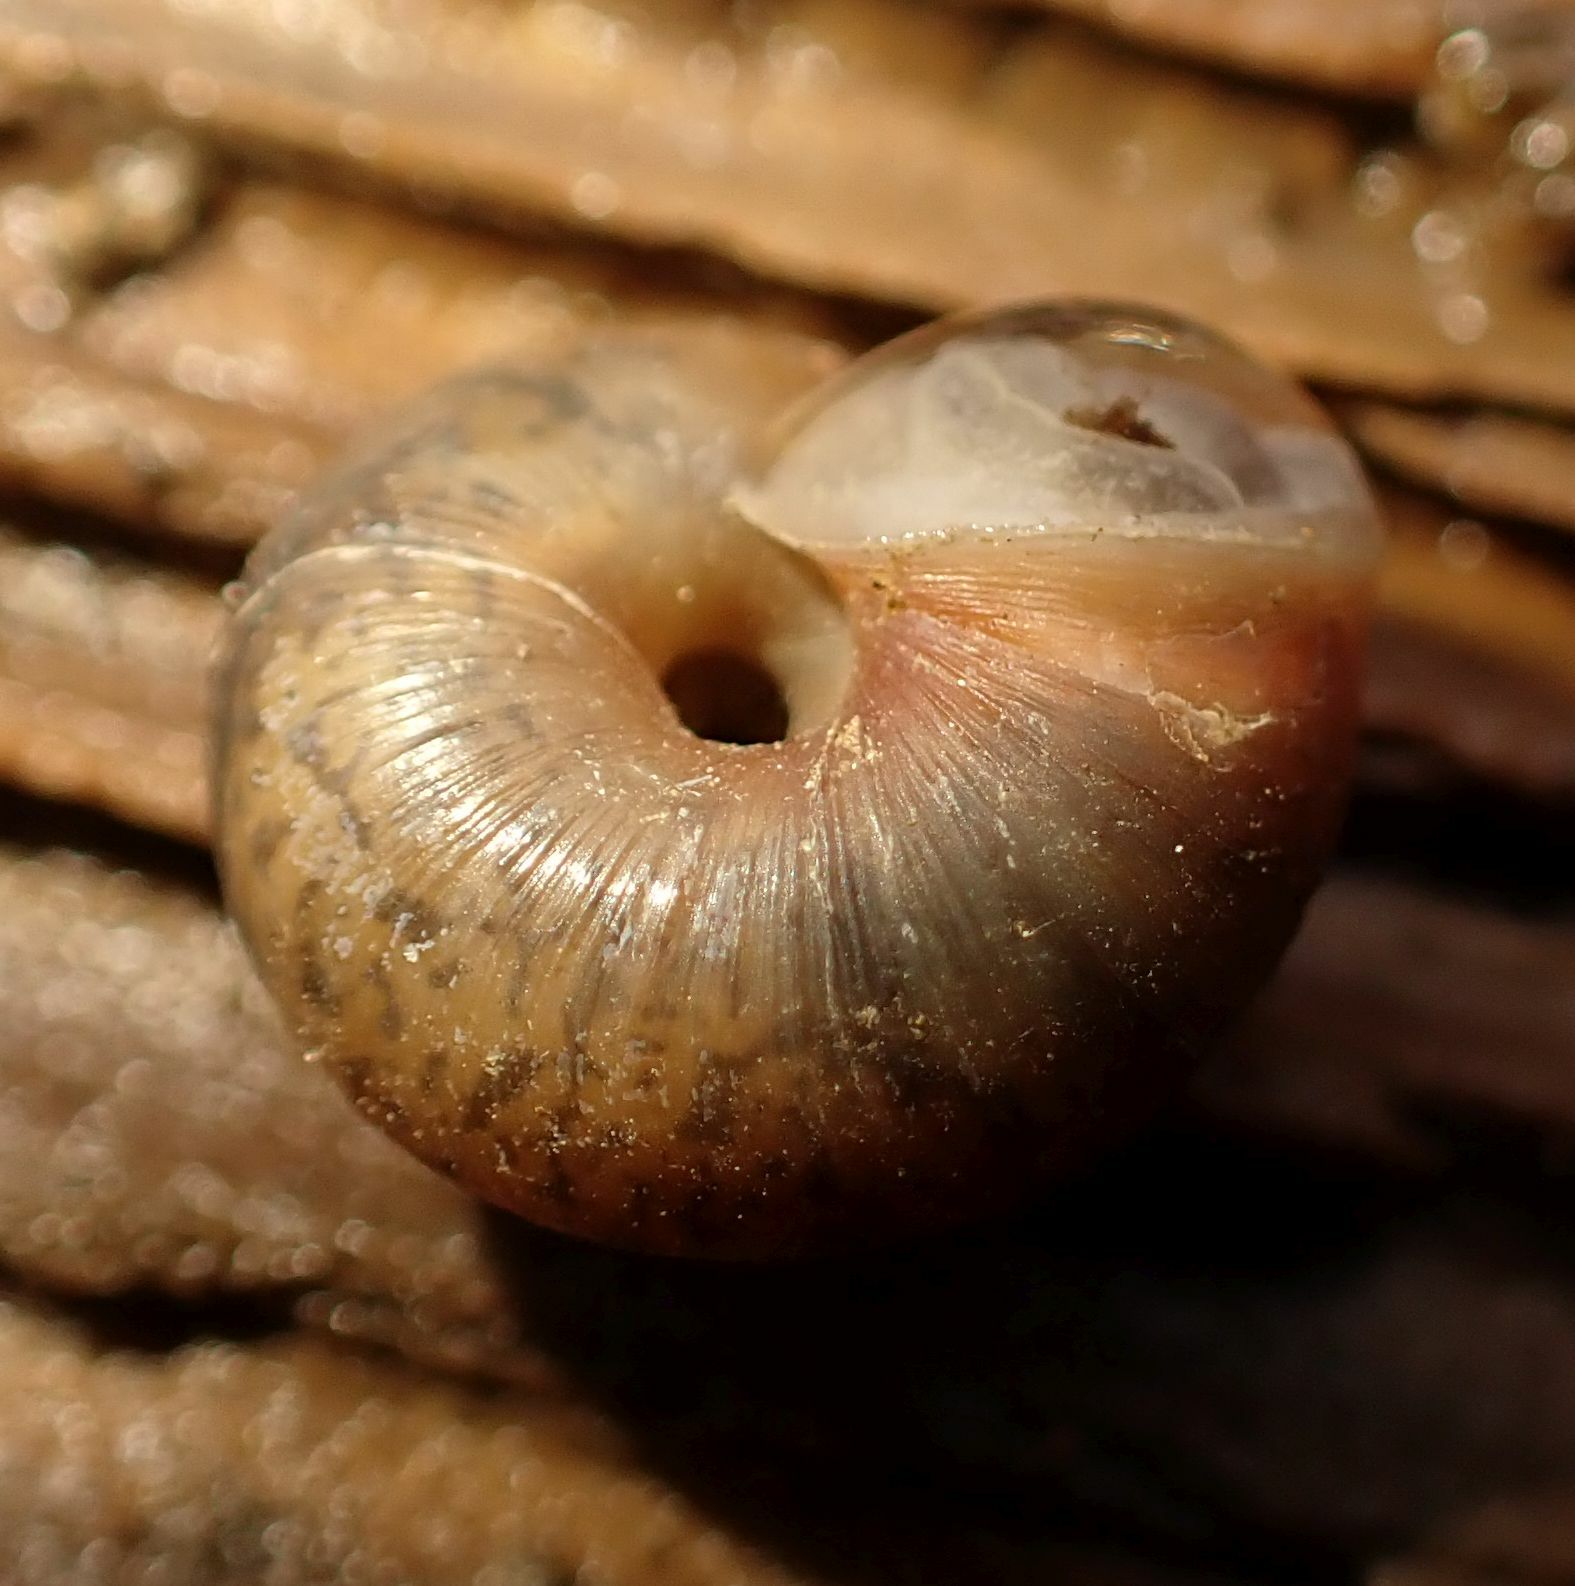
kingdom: Animalia
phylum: Mollusca
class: Gastropoda
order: Stylommatophora
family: Hygromiidae
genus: Trochulus
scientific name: Trochulus striolatus
